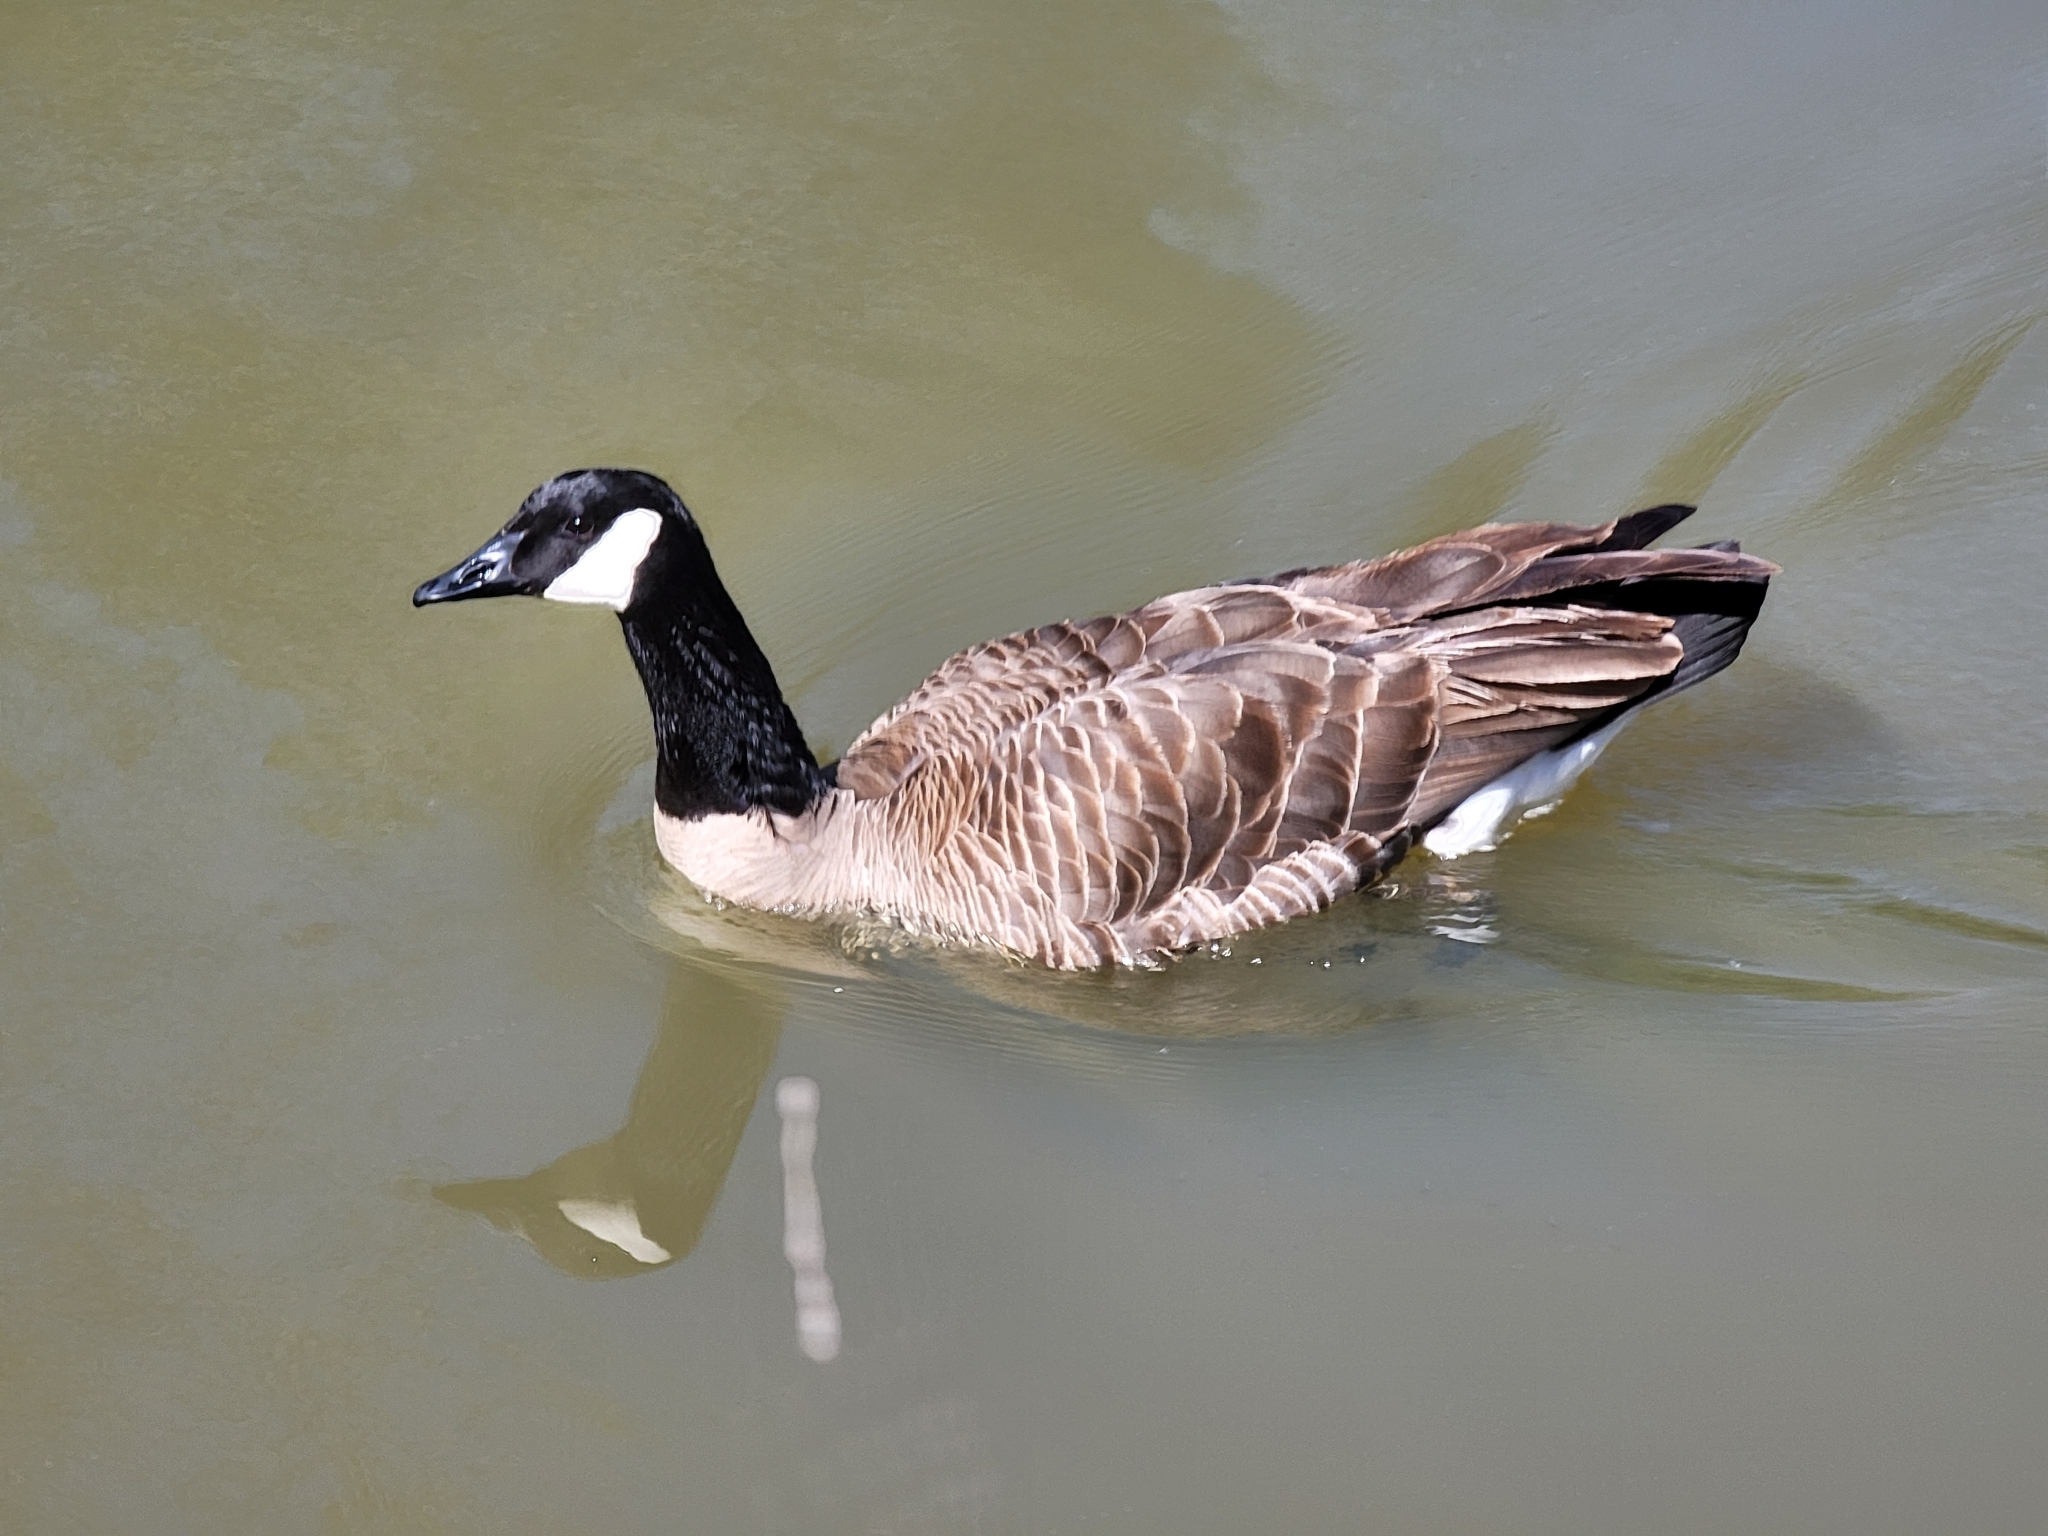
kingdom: Animalia
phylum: Chordata
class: Aves
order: Anseriformes
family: Anatidae
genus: Branta
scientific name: Branta canadensis
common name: Canada goose
